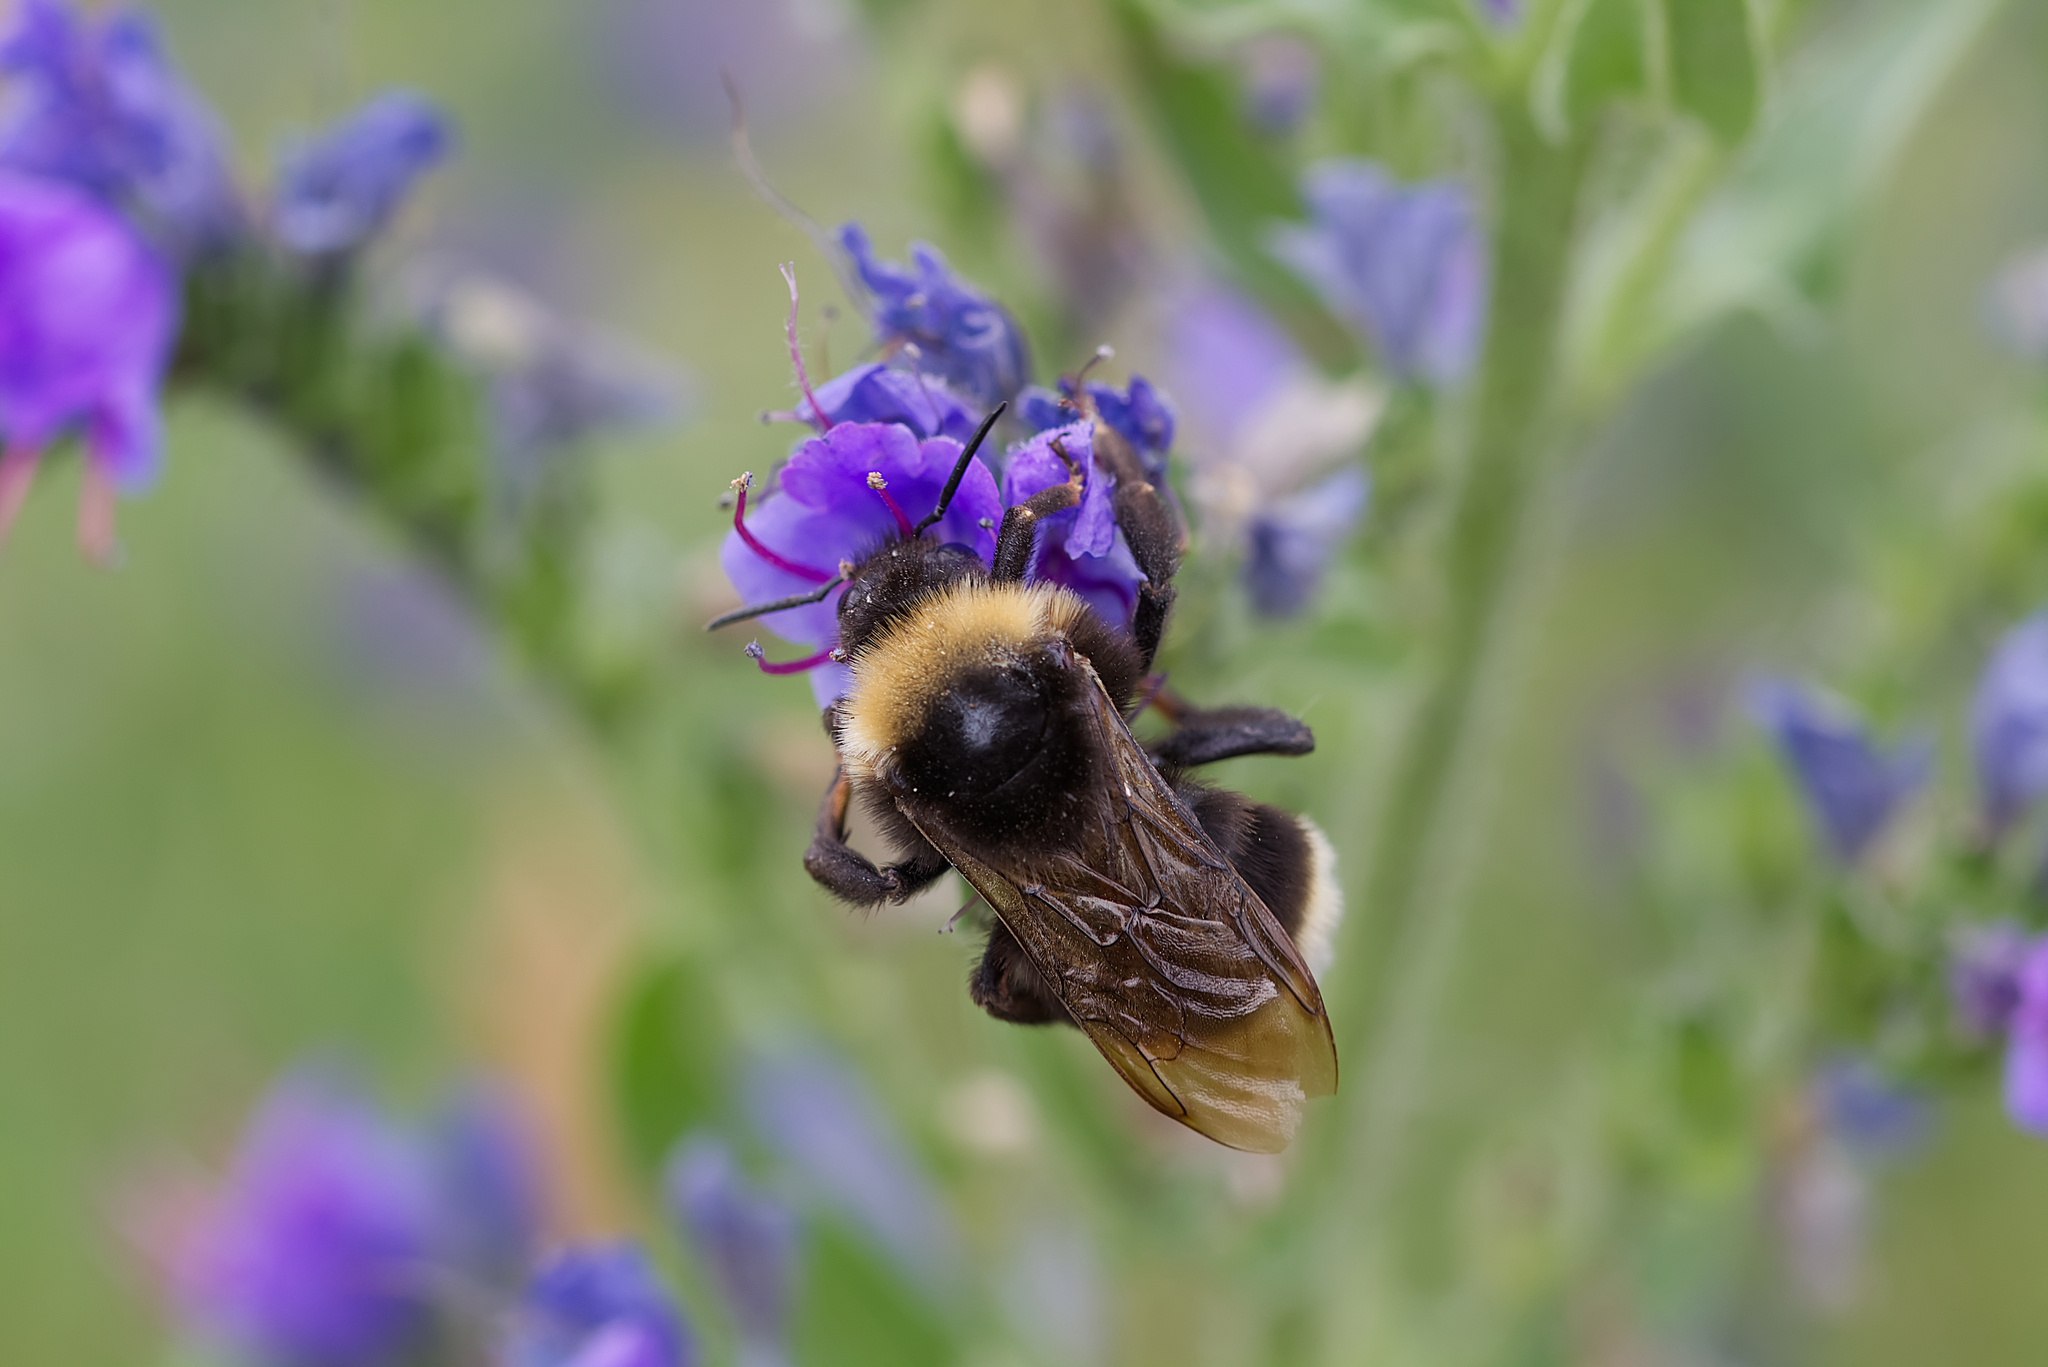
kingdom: Animalia
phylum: Arthropoda
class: Insecta
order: Hymenoptera
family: Apidae
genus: Bombus
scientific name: Bombus vestalis
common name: Vestal cuckoo bee
